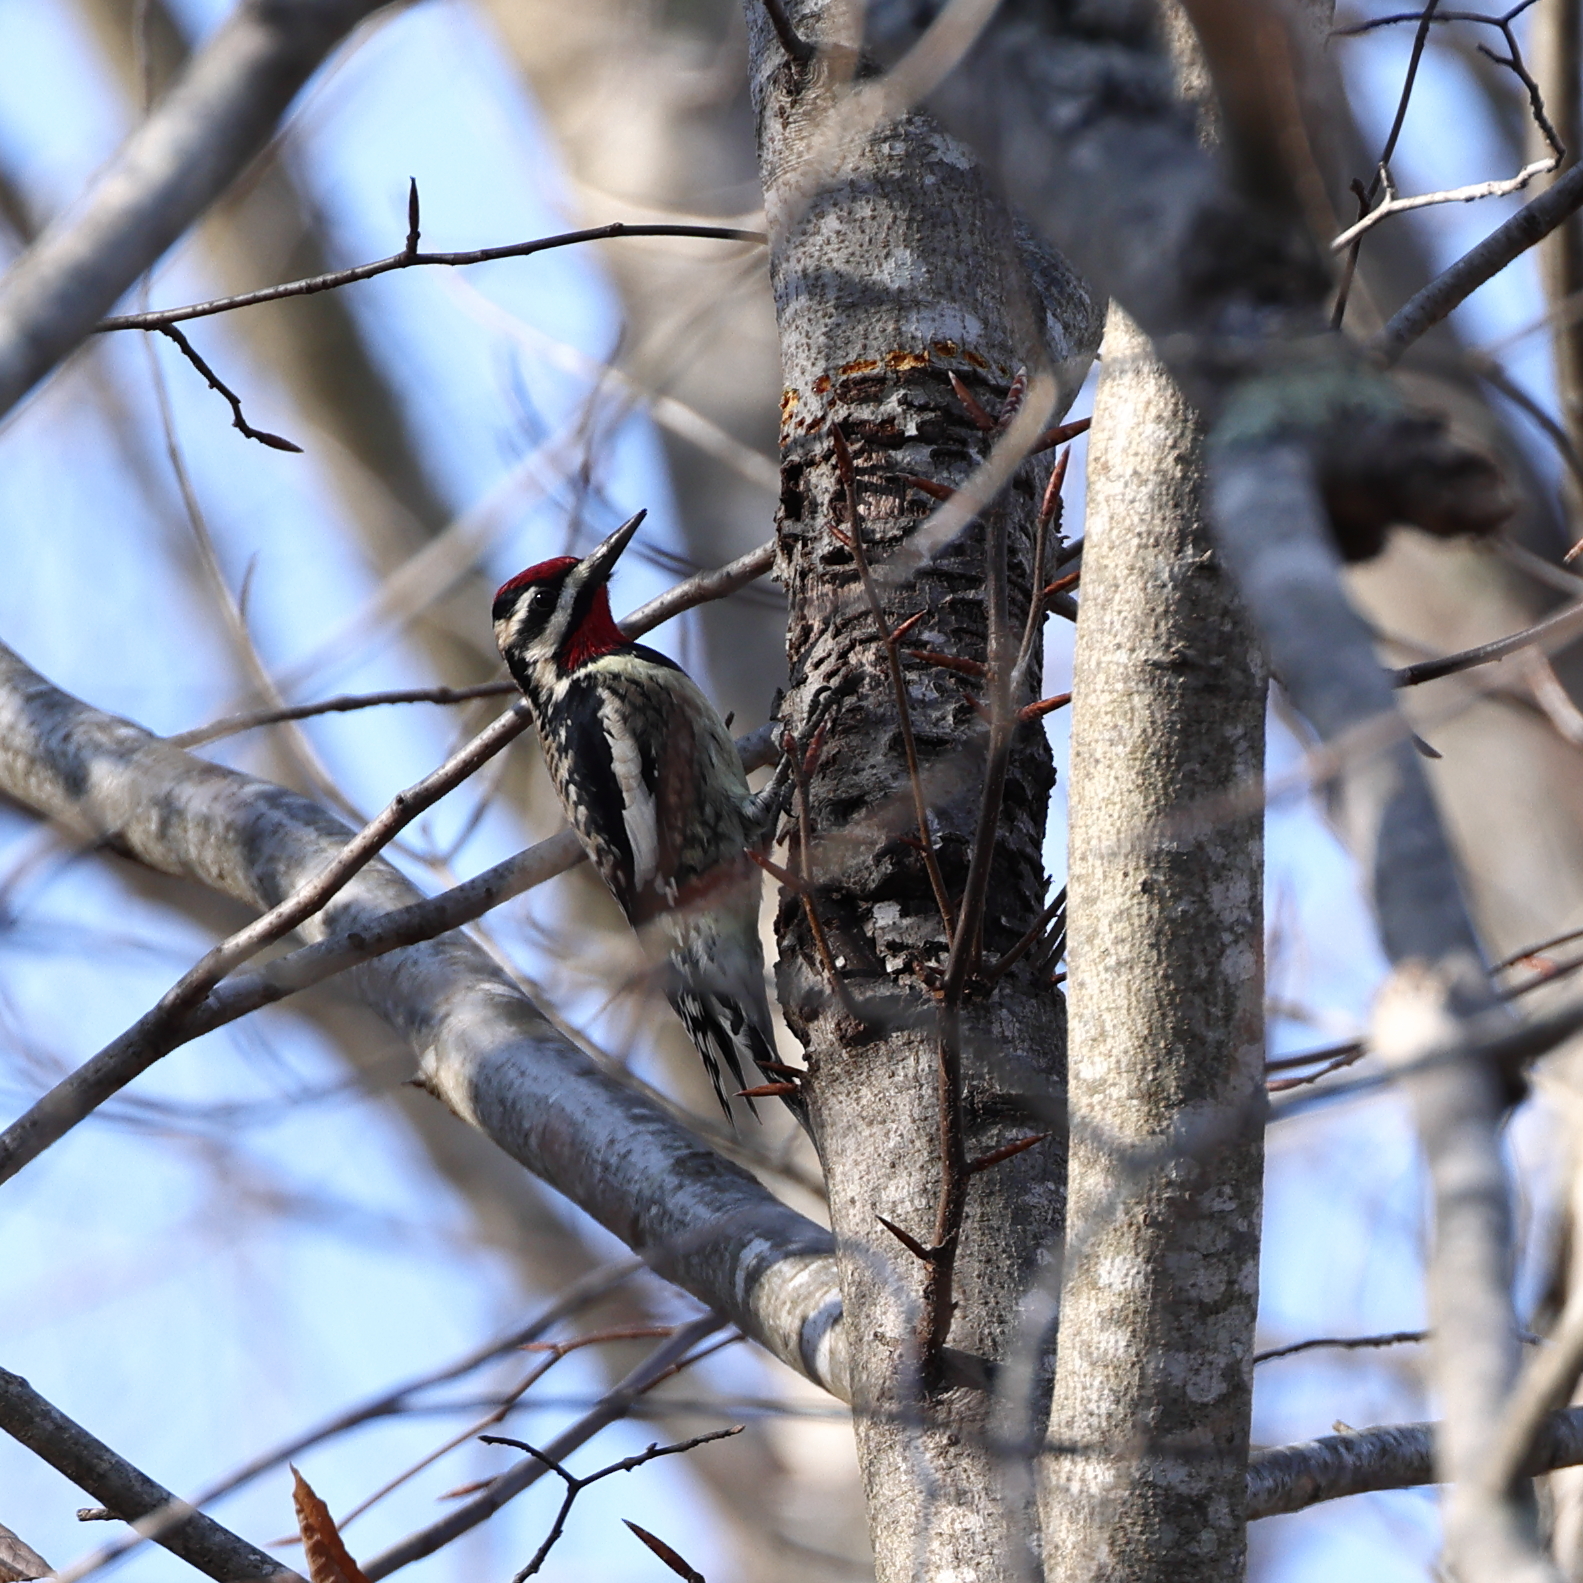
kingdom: Animalia
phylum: Chordata
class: Aves
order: Piciformes
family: Picidae
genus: Sphyrapicus
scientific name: Sphyrapicus varius
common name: Yellow-bellied sapsucker
